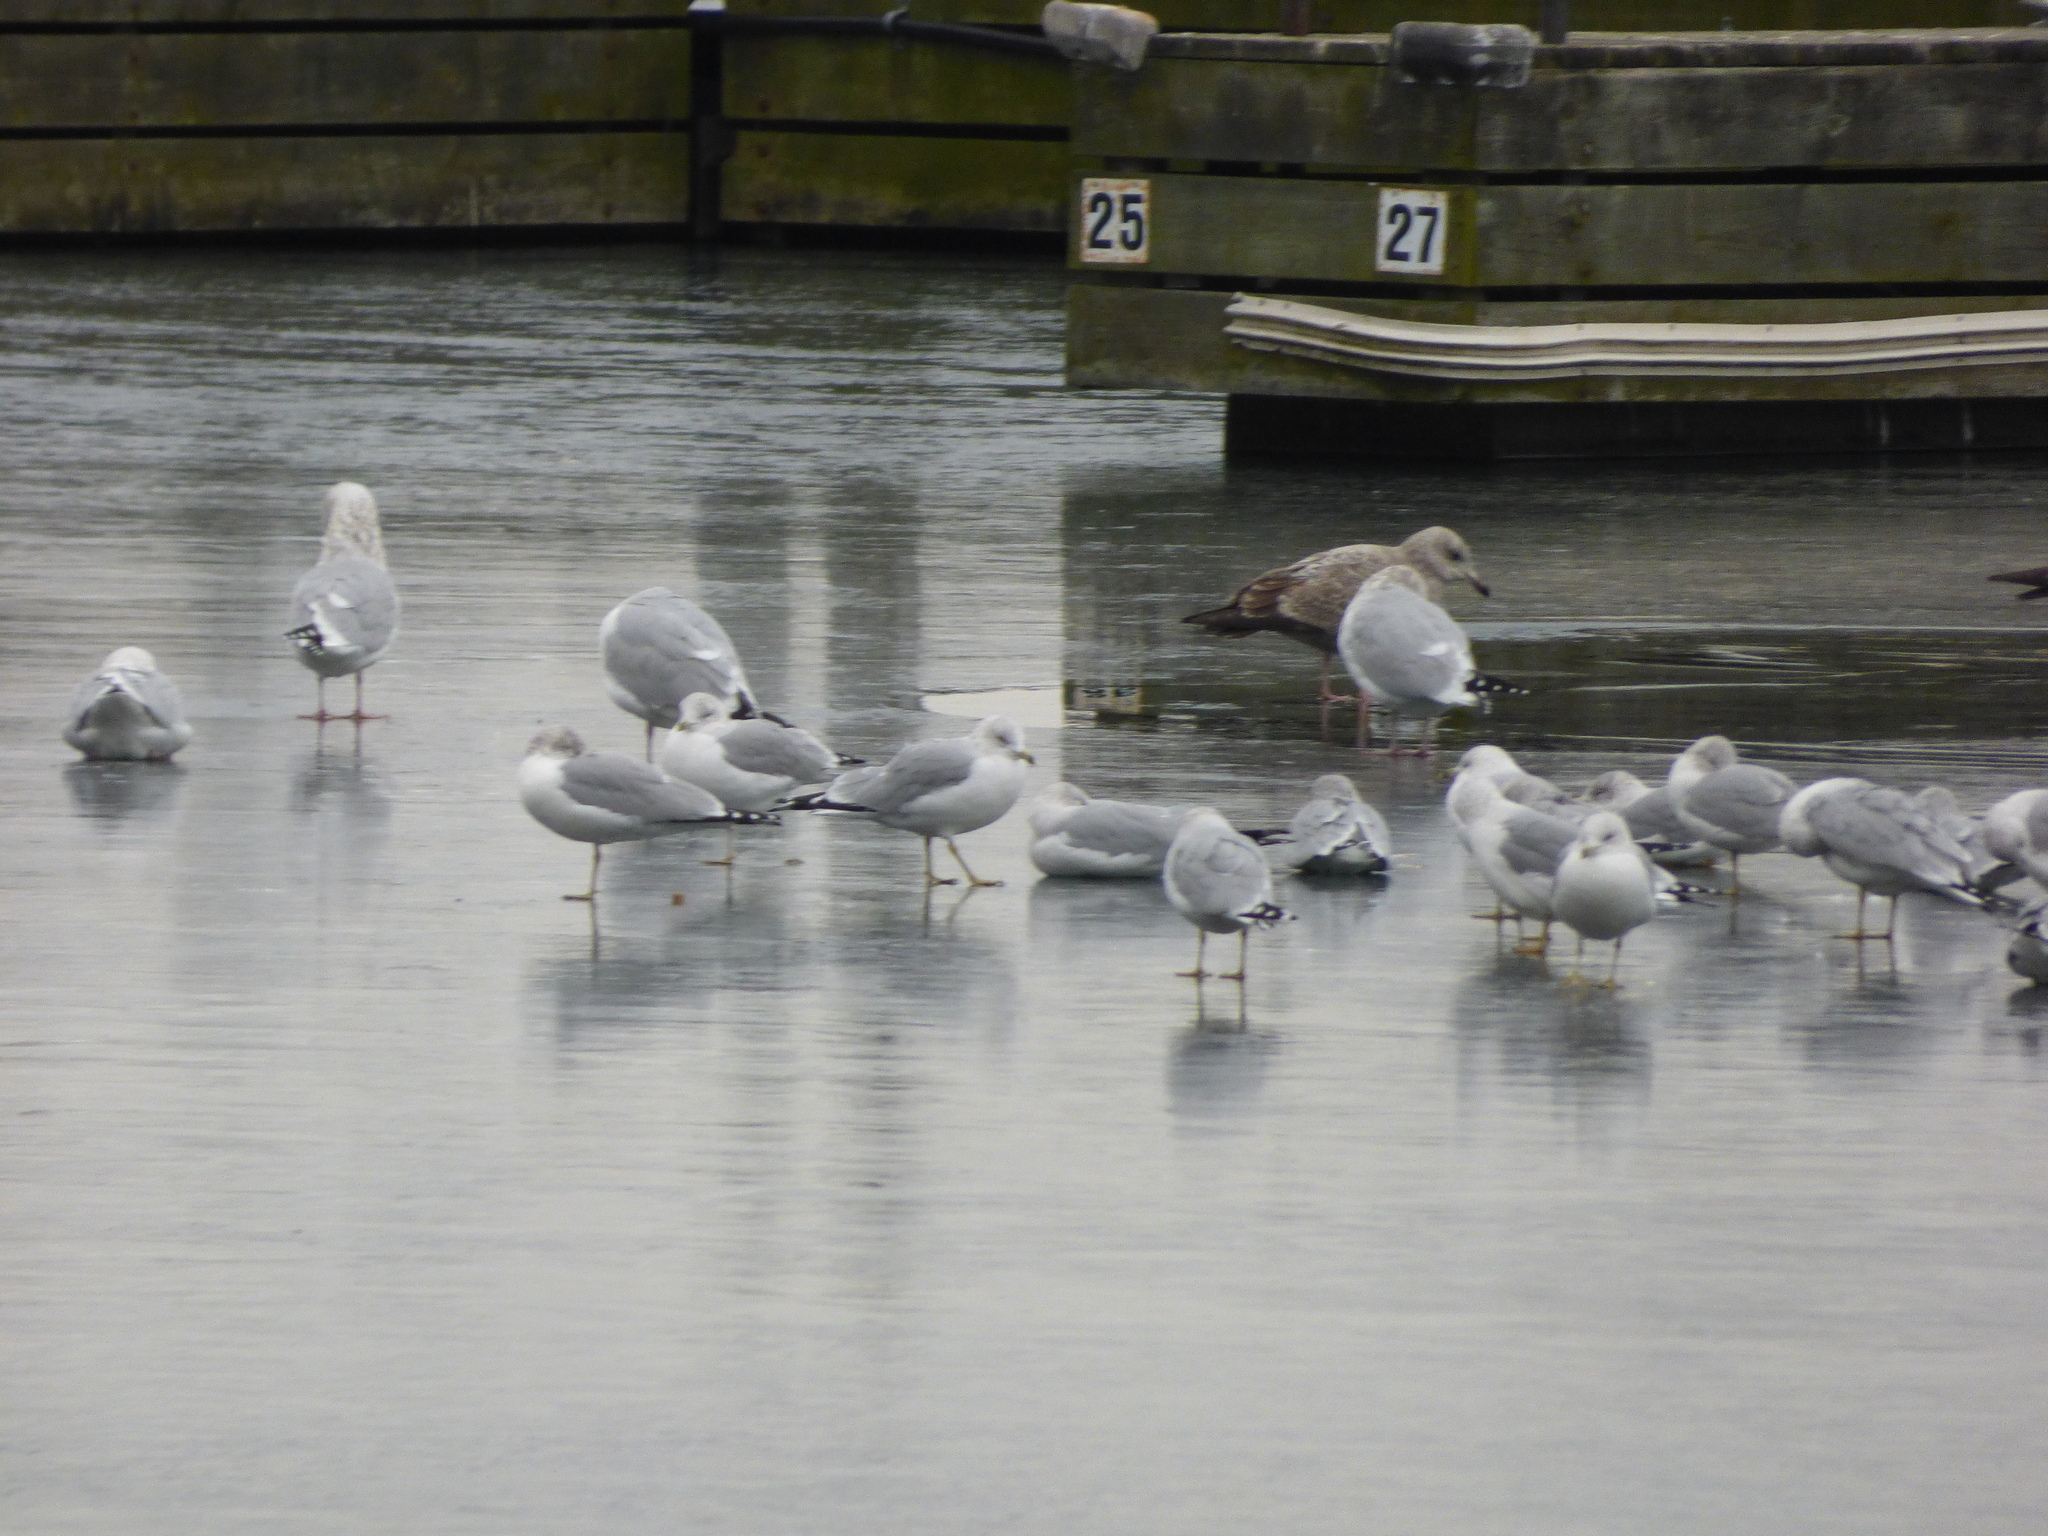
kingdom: Animalia
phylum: Chordata
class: Aves
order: Charadriiformes
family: Laridae
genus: Larus
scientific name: Larus argentatus
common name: Herring gull
